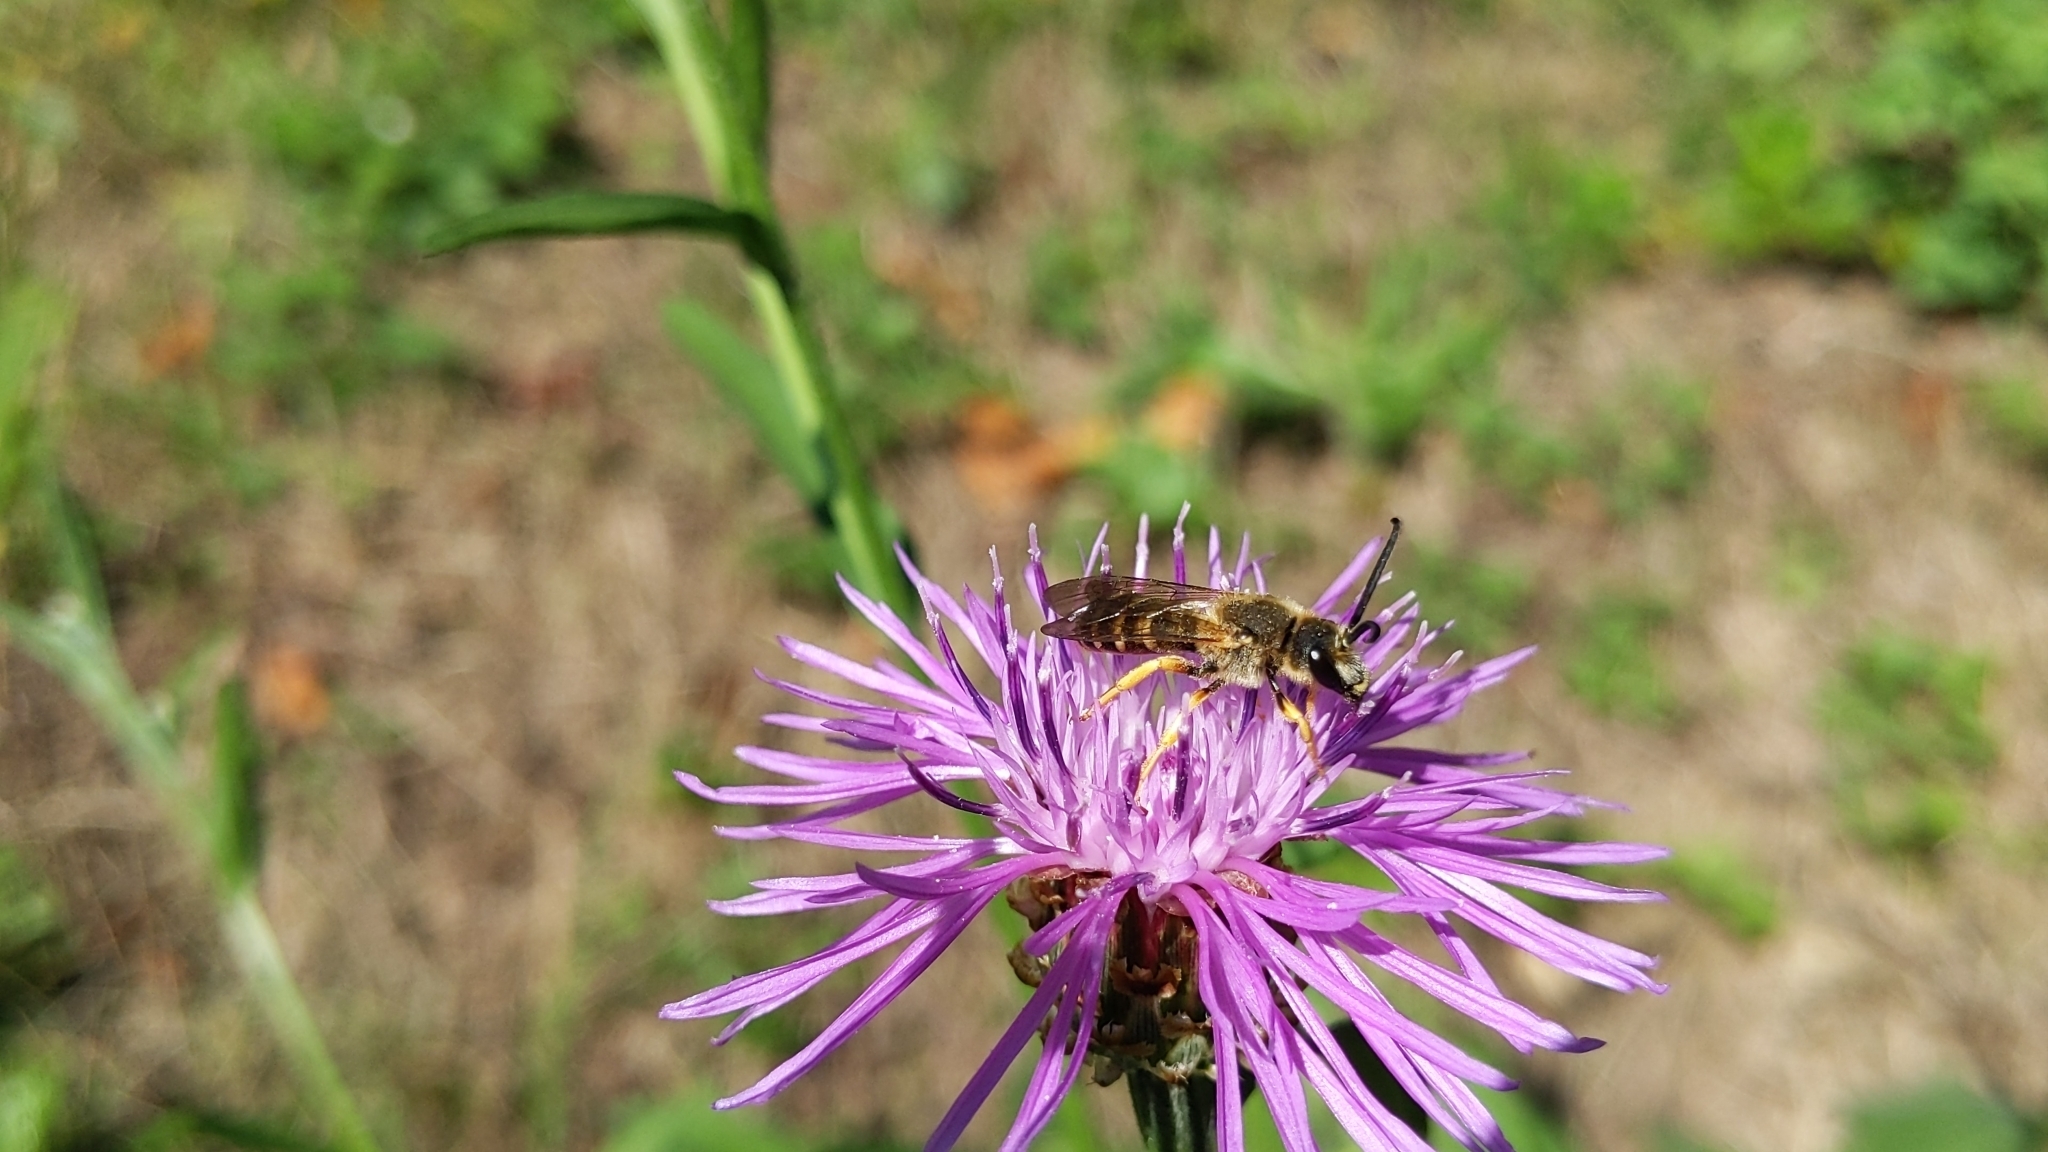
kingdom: Animalia
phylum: Arthropoda
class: Insecta
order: Hymenoptera
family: Halictidae
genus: Halictus
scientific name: Halictus scabiosae
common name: Great banded furrow bee
